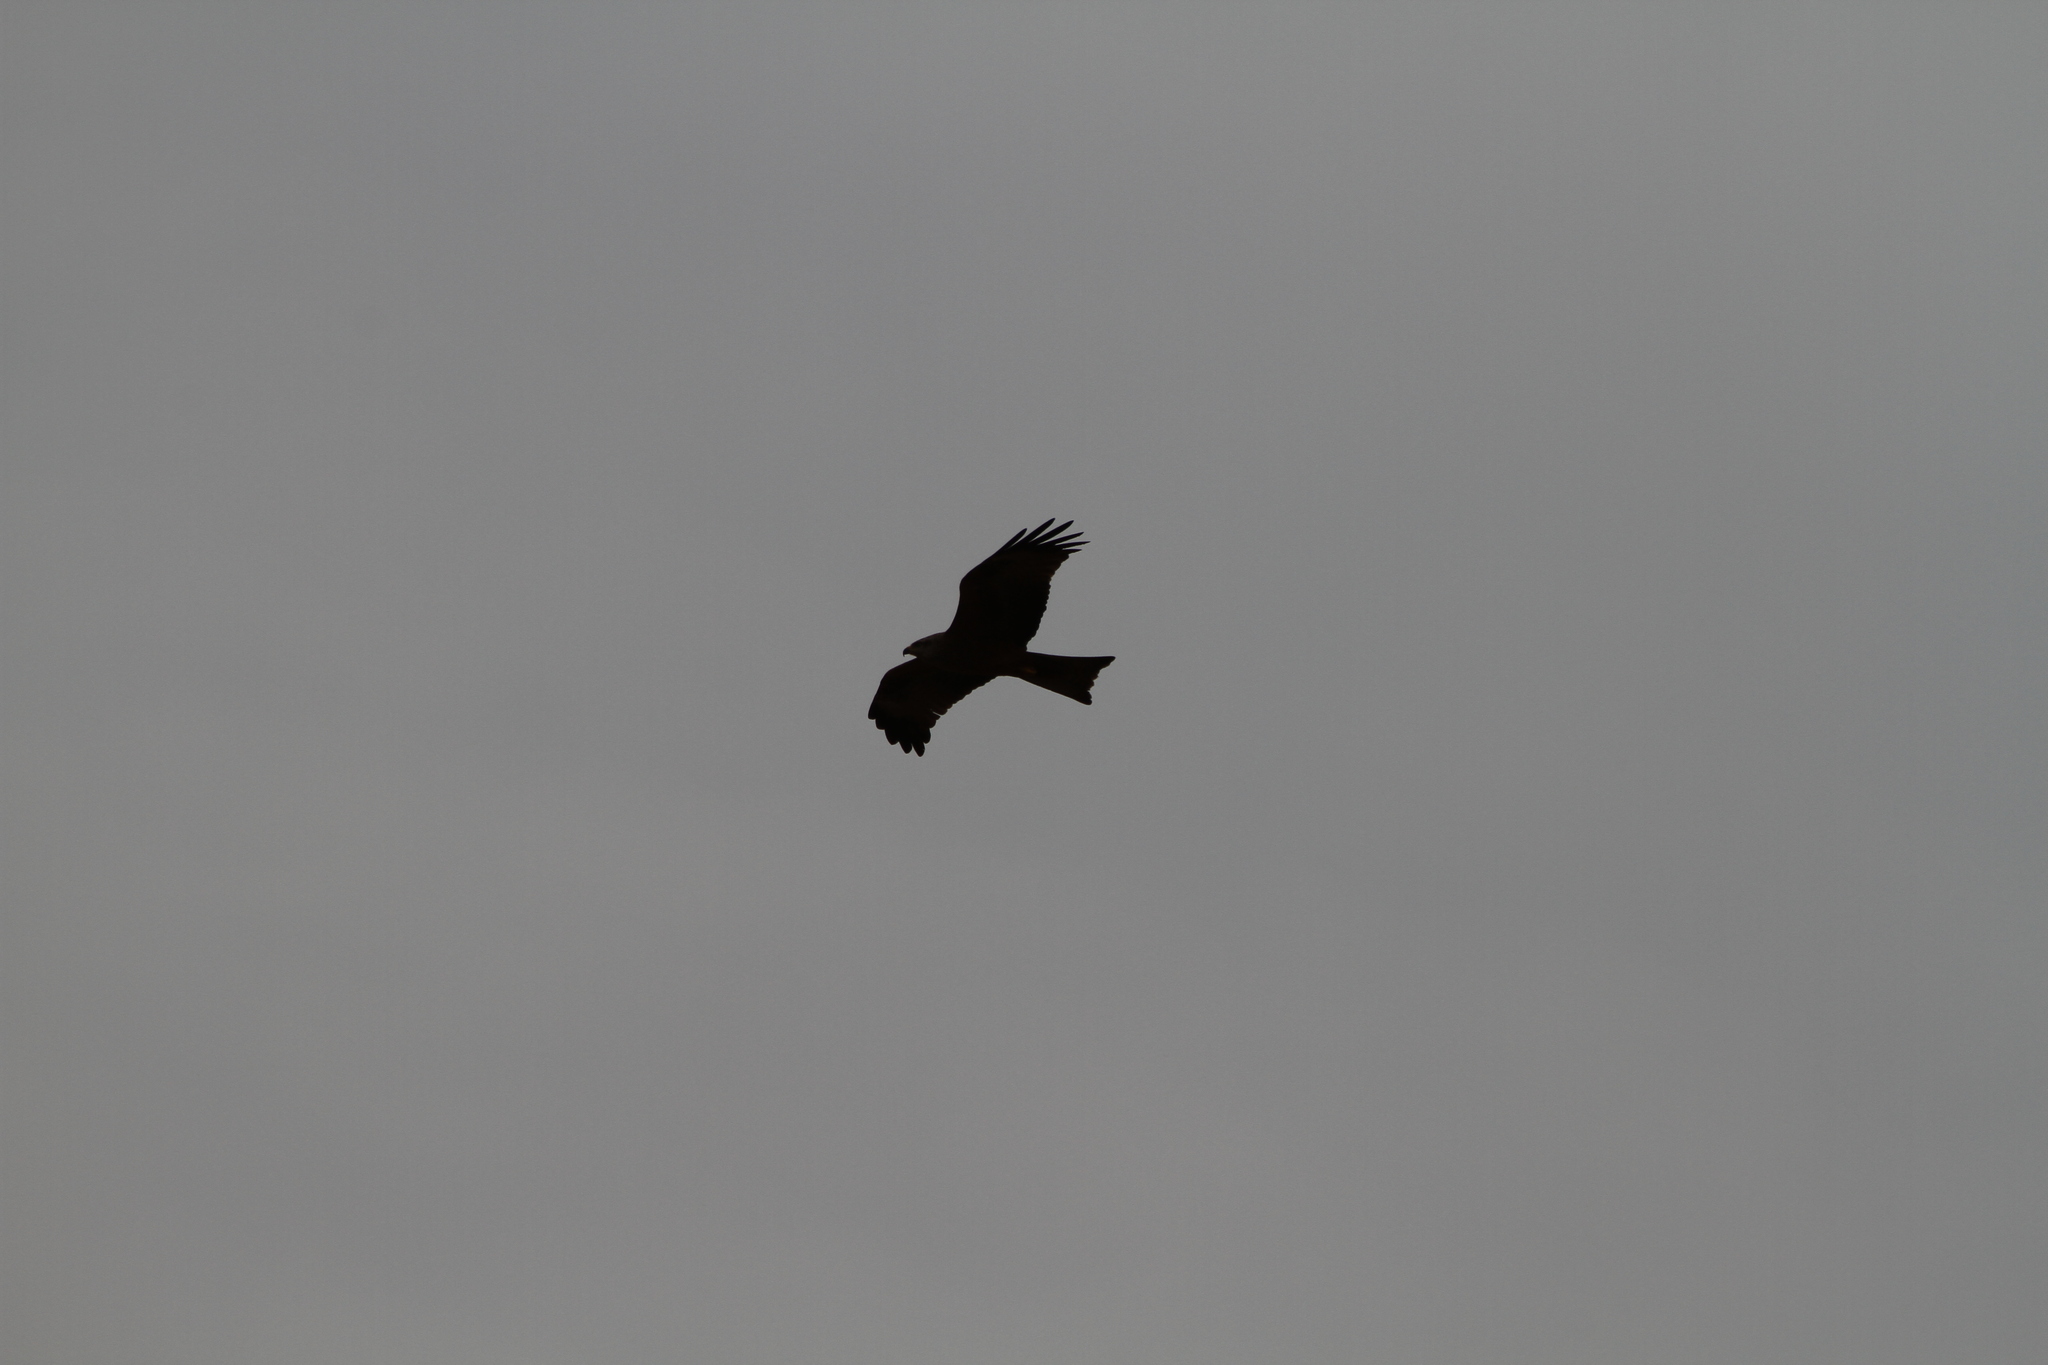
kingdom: Animalia
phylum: Chordata
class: Aves
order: Accipitriformes
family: Accipitridae
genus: Milvus
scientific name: Milvus migrans
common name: Black kite
